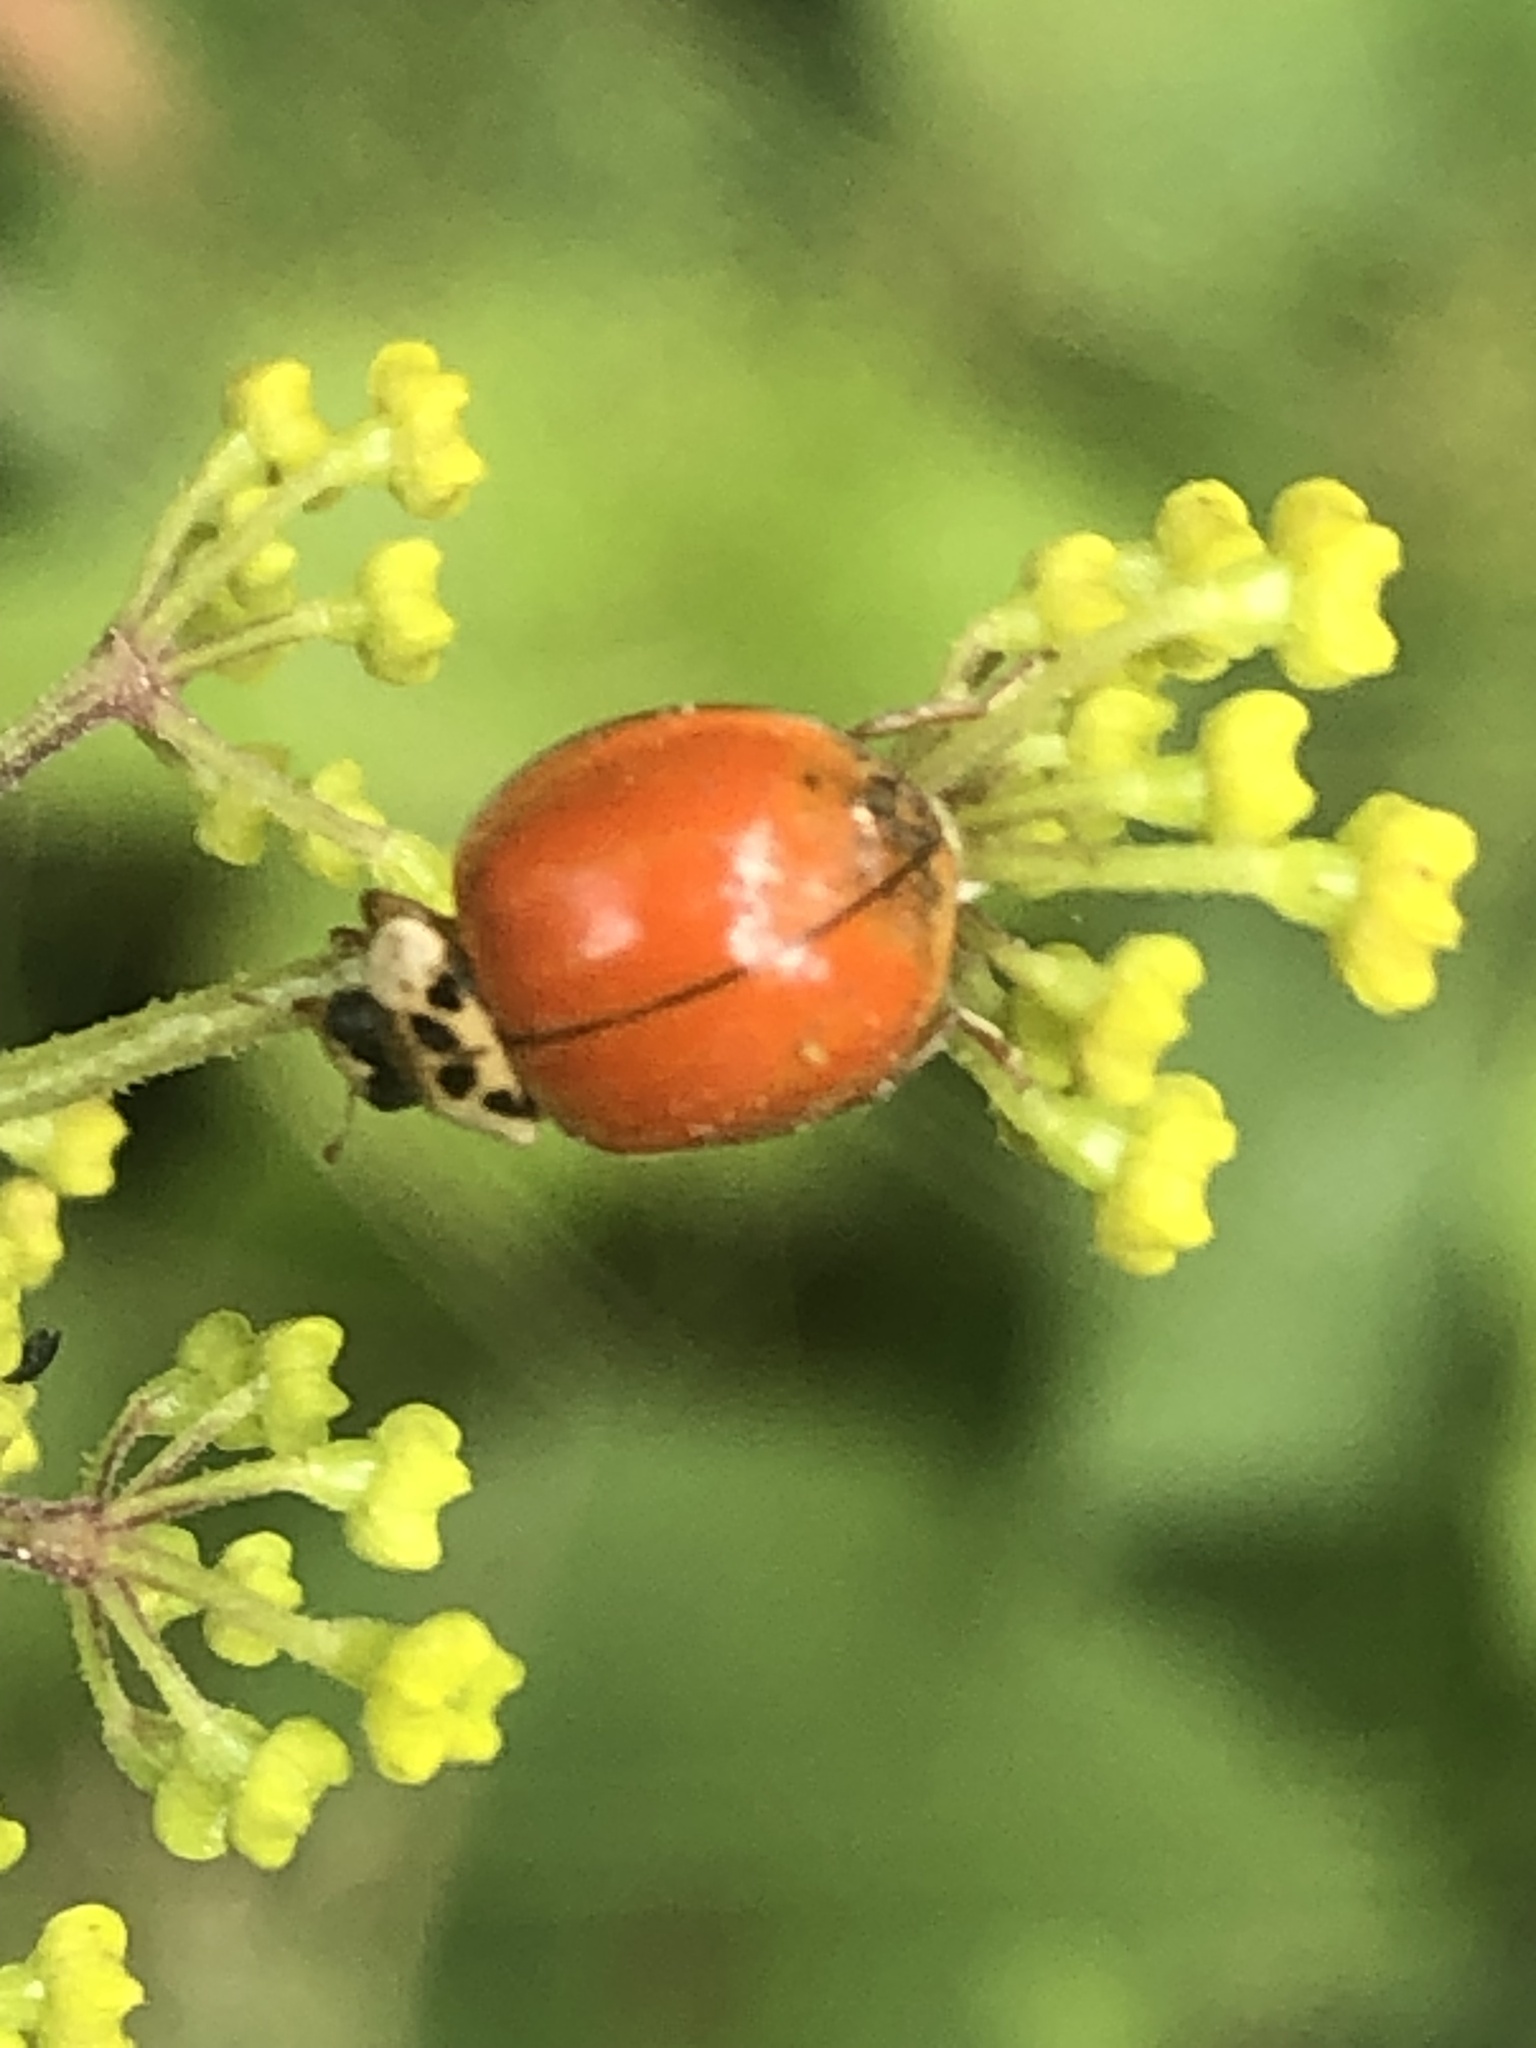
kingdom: Animalia
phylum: Arthropoda
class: Insecta
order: Coleoptera
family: Coccinellidae
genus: Harmonia
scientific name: Harmonia axyridis
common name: Harlequin ladybird
